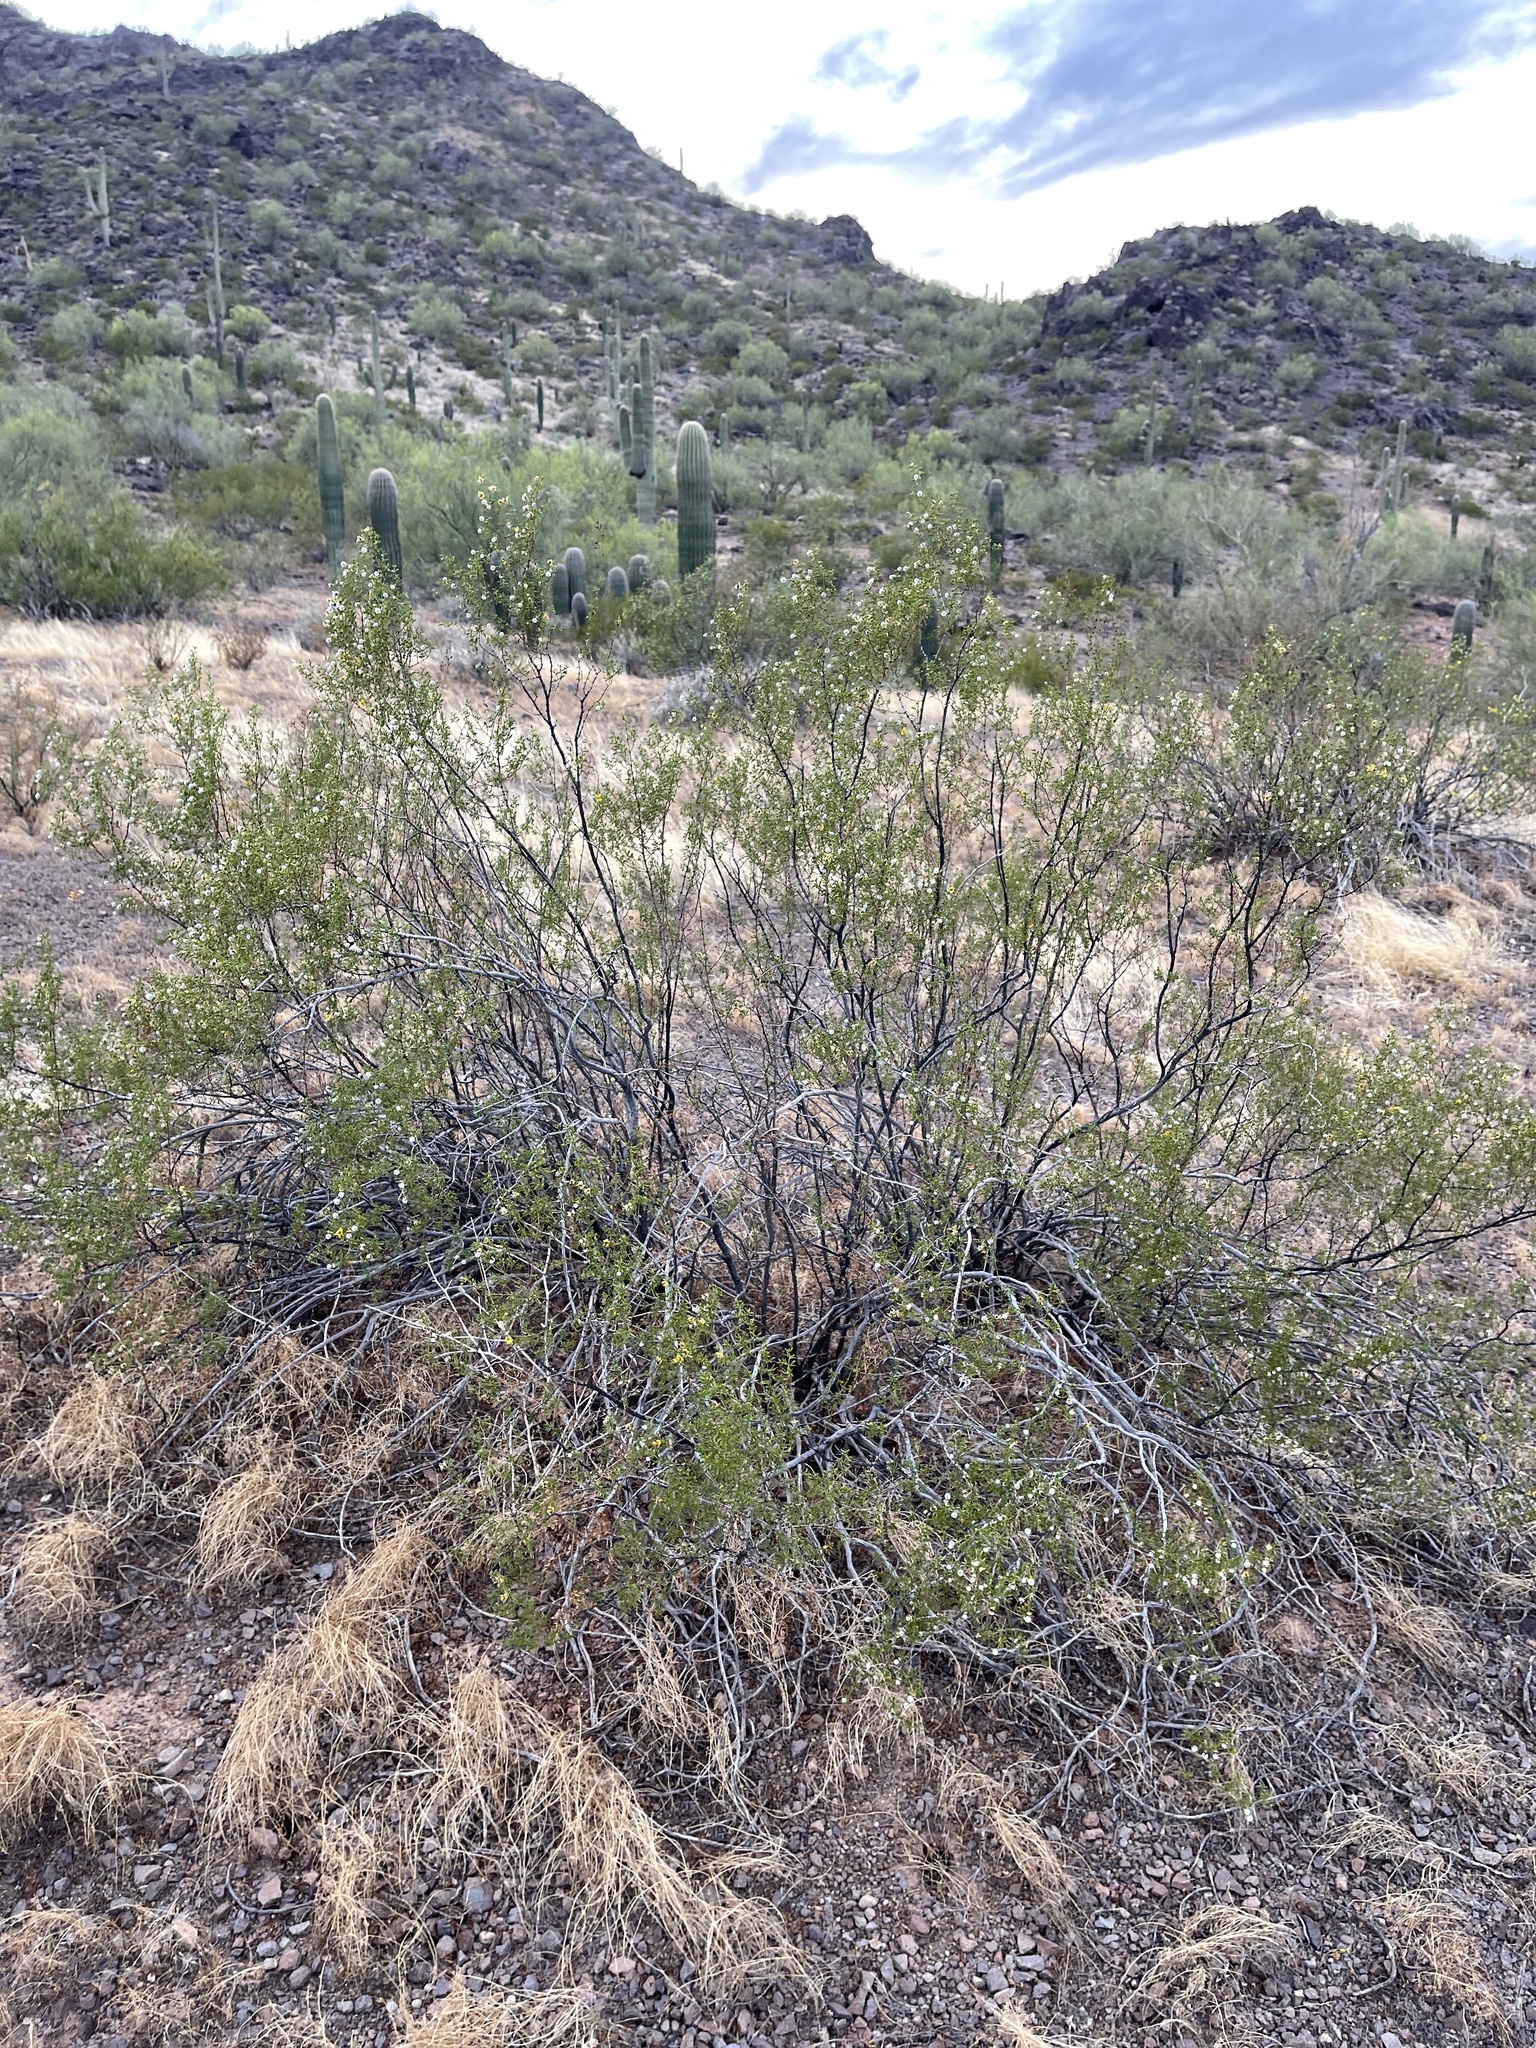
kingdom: Plantae
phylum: Tracheophyta
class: Magnoliopsida
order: Zygophyllales
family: Zygophyllaceae
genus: Larrea
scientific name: Larrea tridentata
